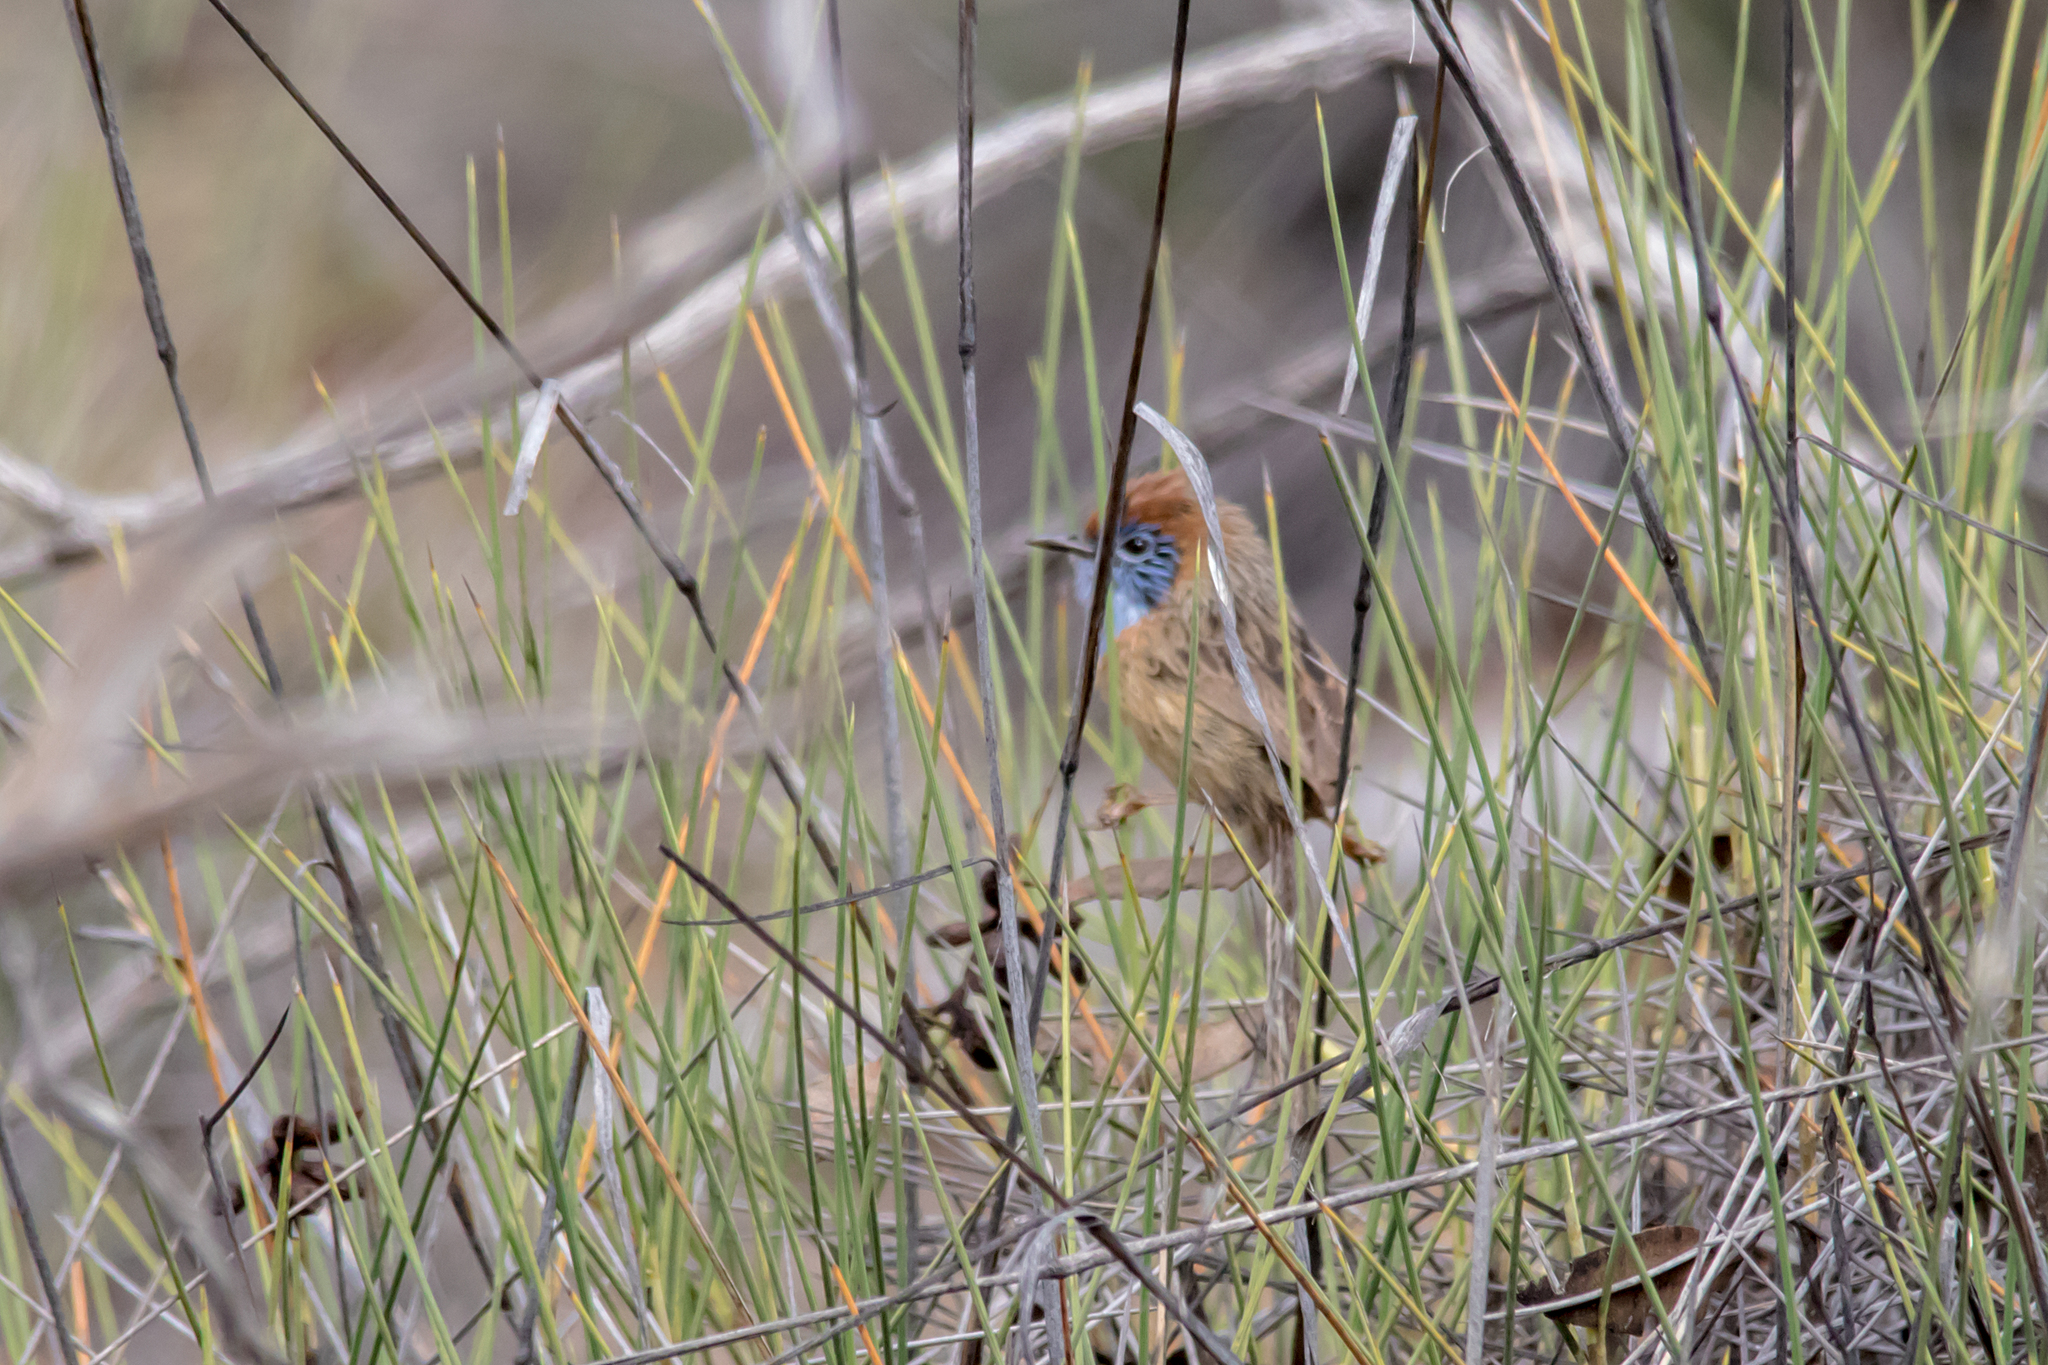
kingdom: Animalia
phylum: Chordata
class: Aves
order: Passeriformes
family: Maluridae
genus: Stipiturus
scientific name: Stipiturus mallee
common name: Mallee emu-wren
